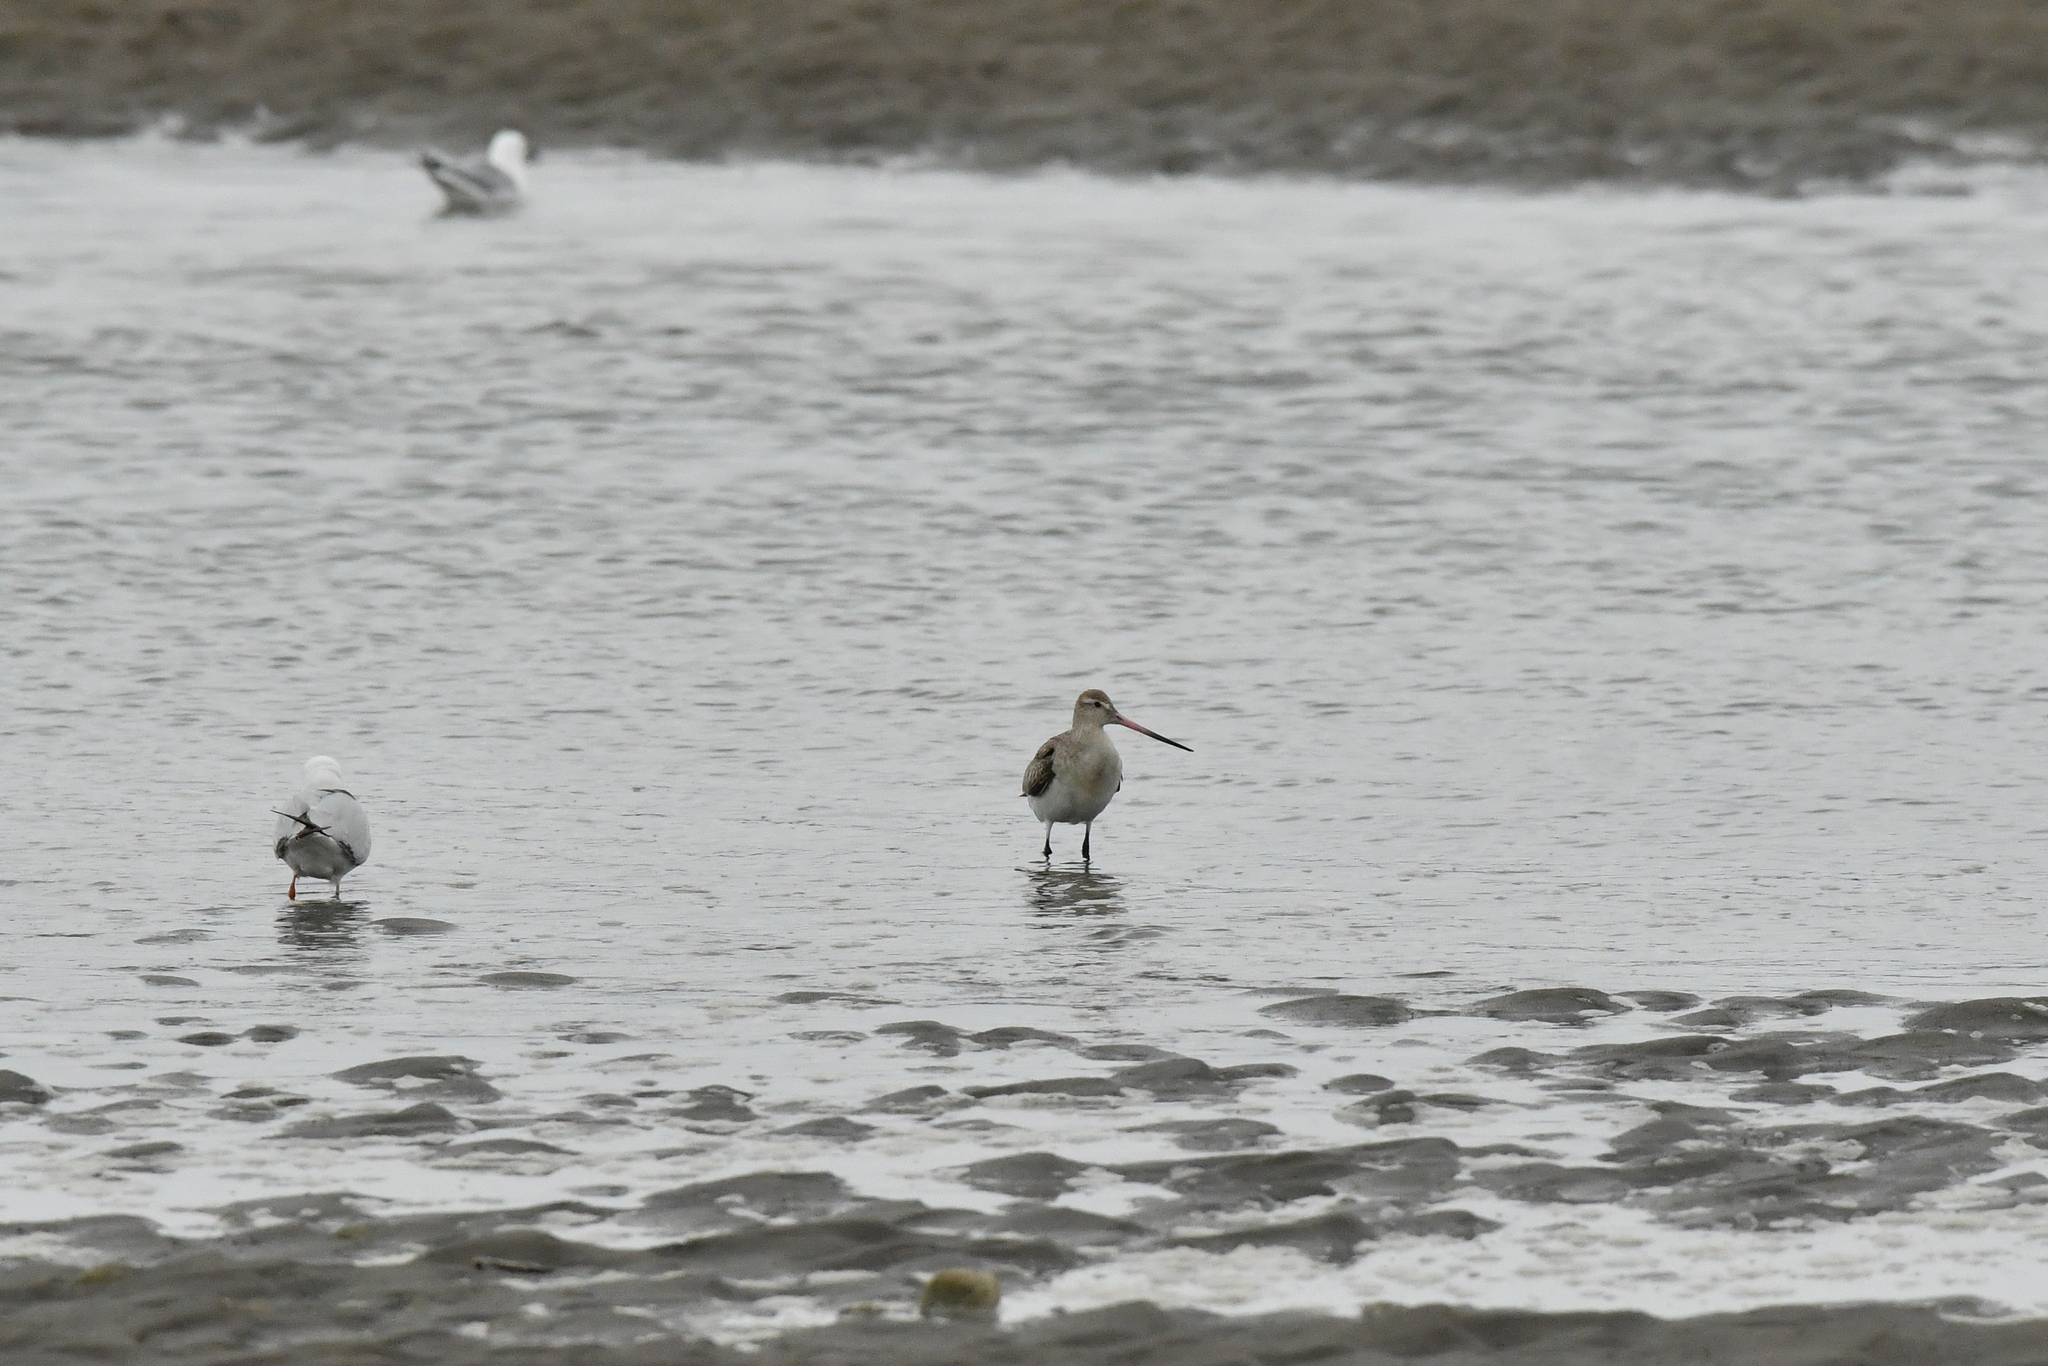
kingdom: Animalia
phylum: Chordata
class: Aves
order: Charadriiformes
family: Scolopacidae
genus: Limosa
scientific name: Limosa lapponica
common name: Bar-tailed godwit
